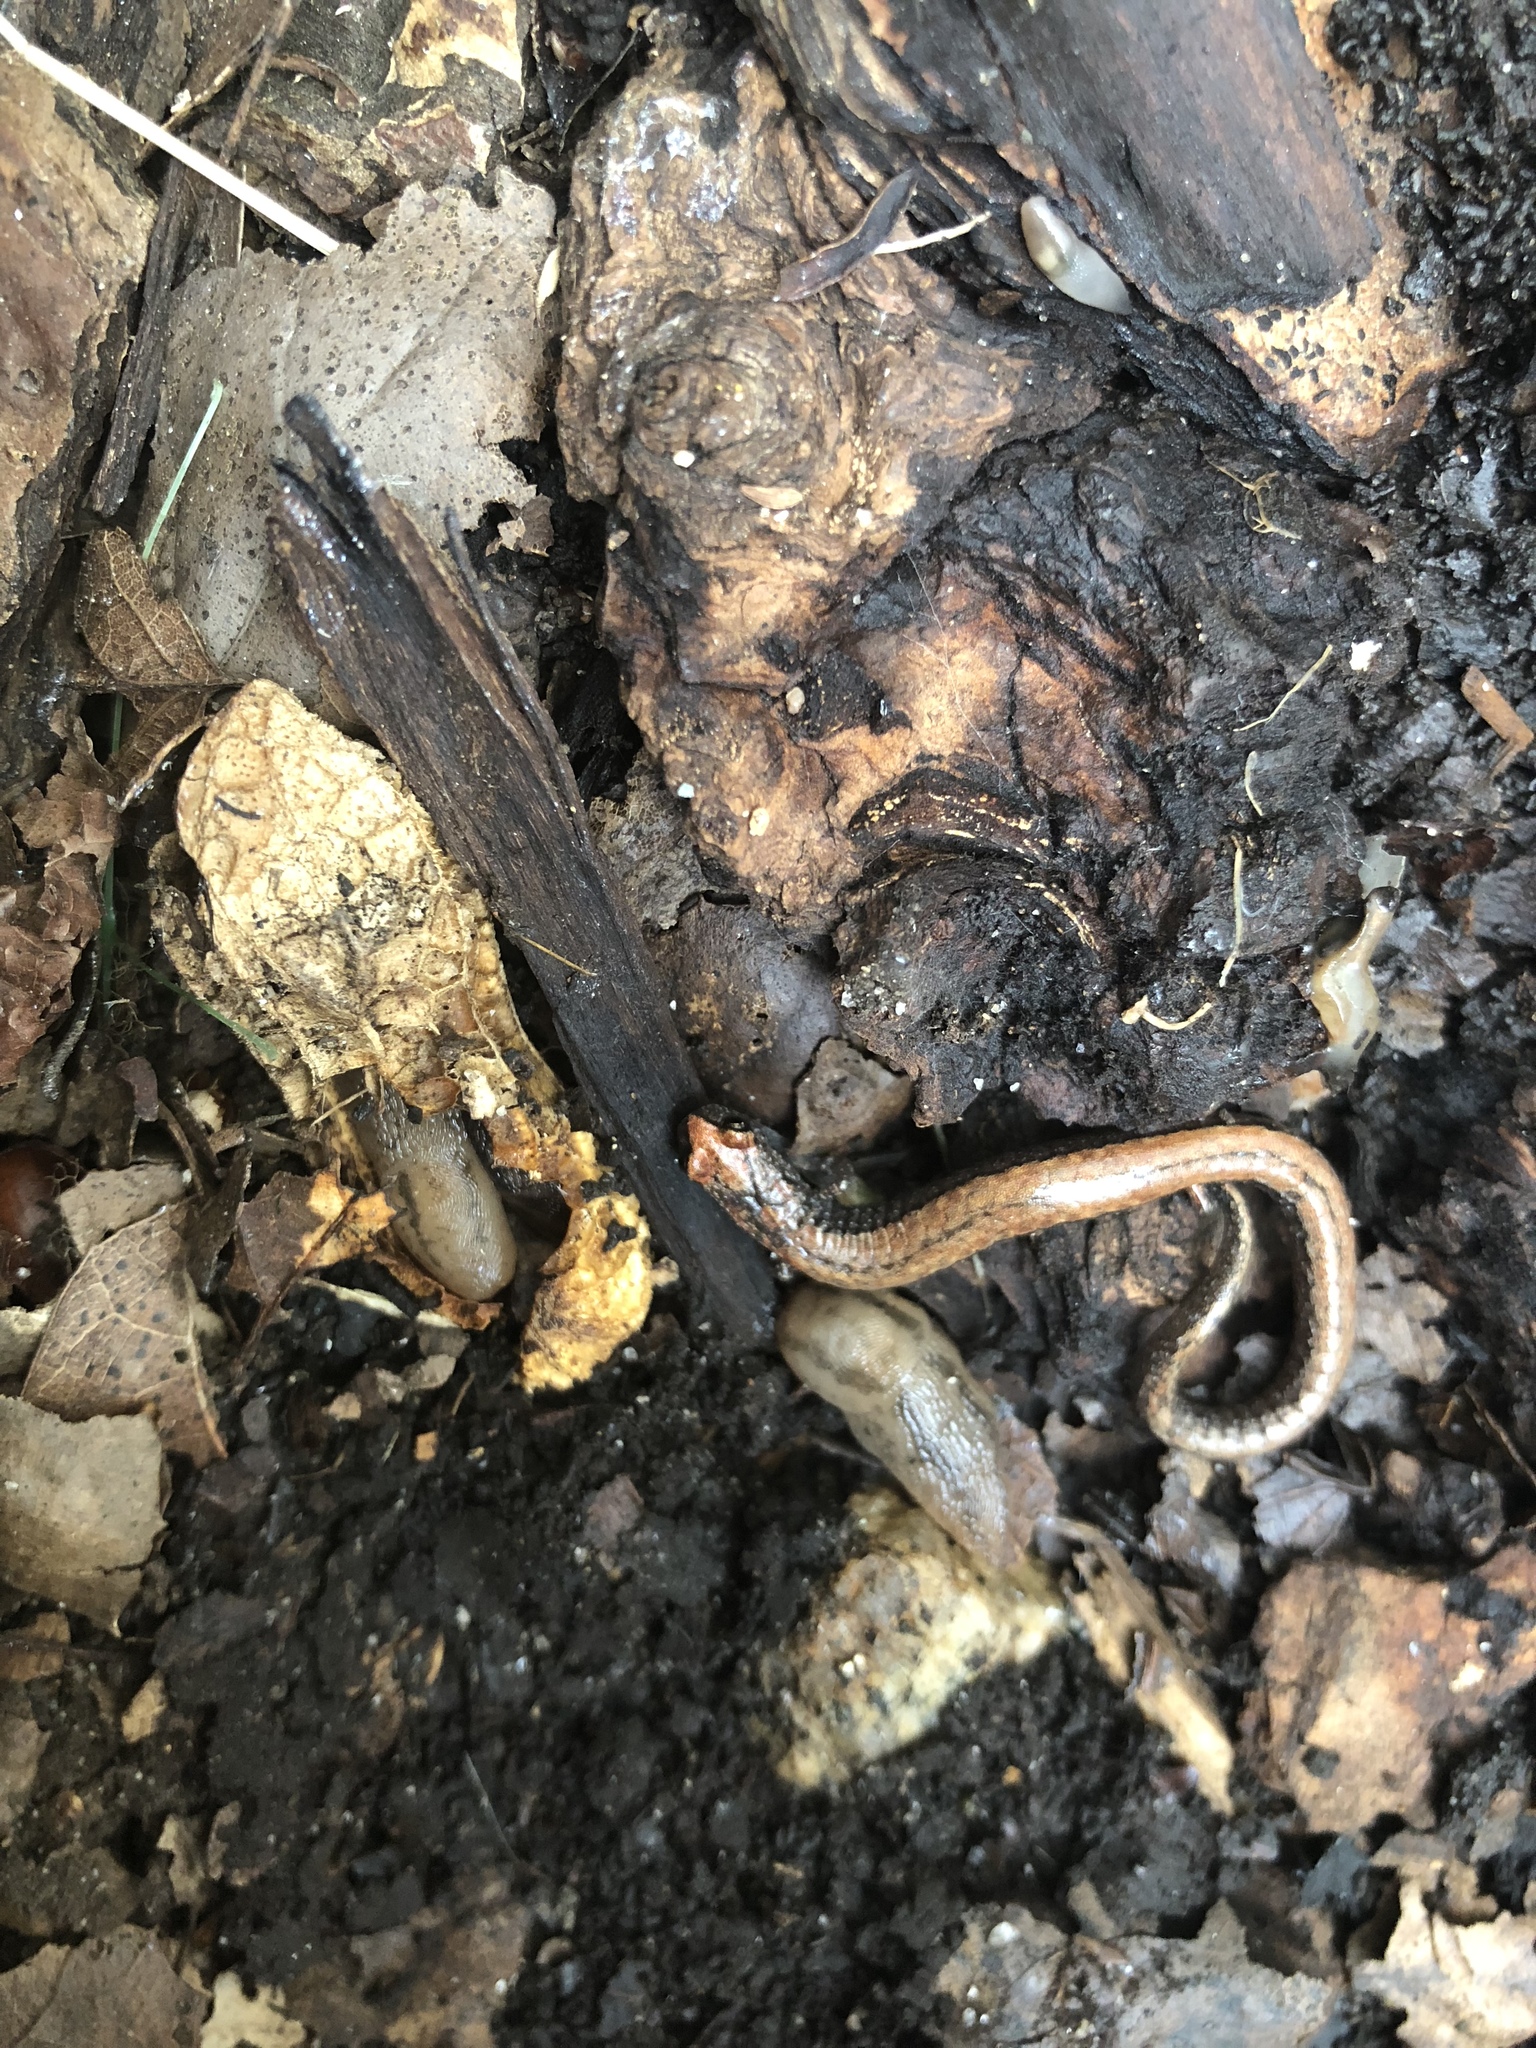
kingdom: Animalia
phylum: Chordata
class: Amphibia
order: Caudata
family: Plethodontidae
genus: Batrachoseps
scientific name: Batrachoseps luciae
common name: Santa lucia mountains slender salamander
